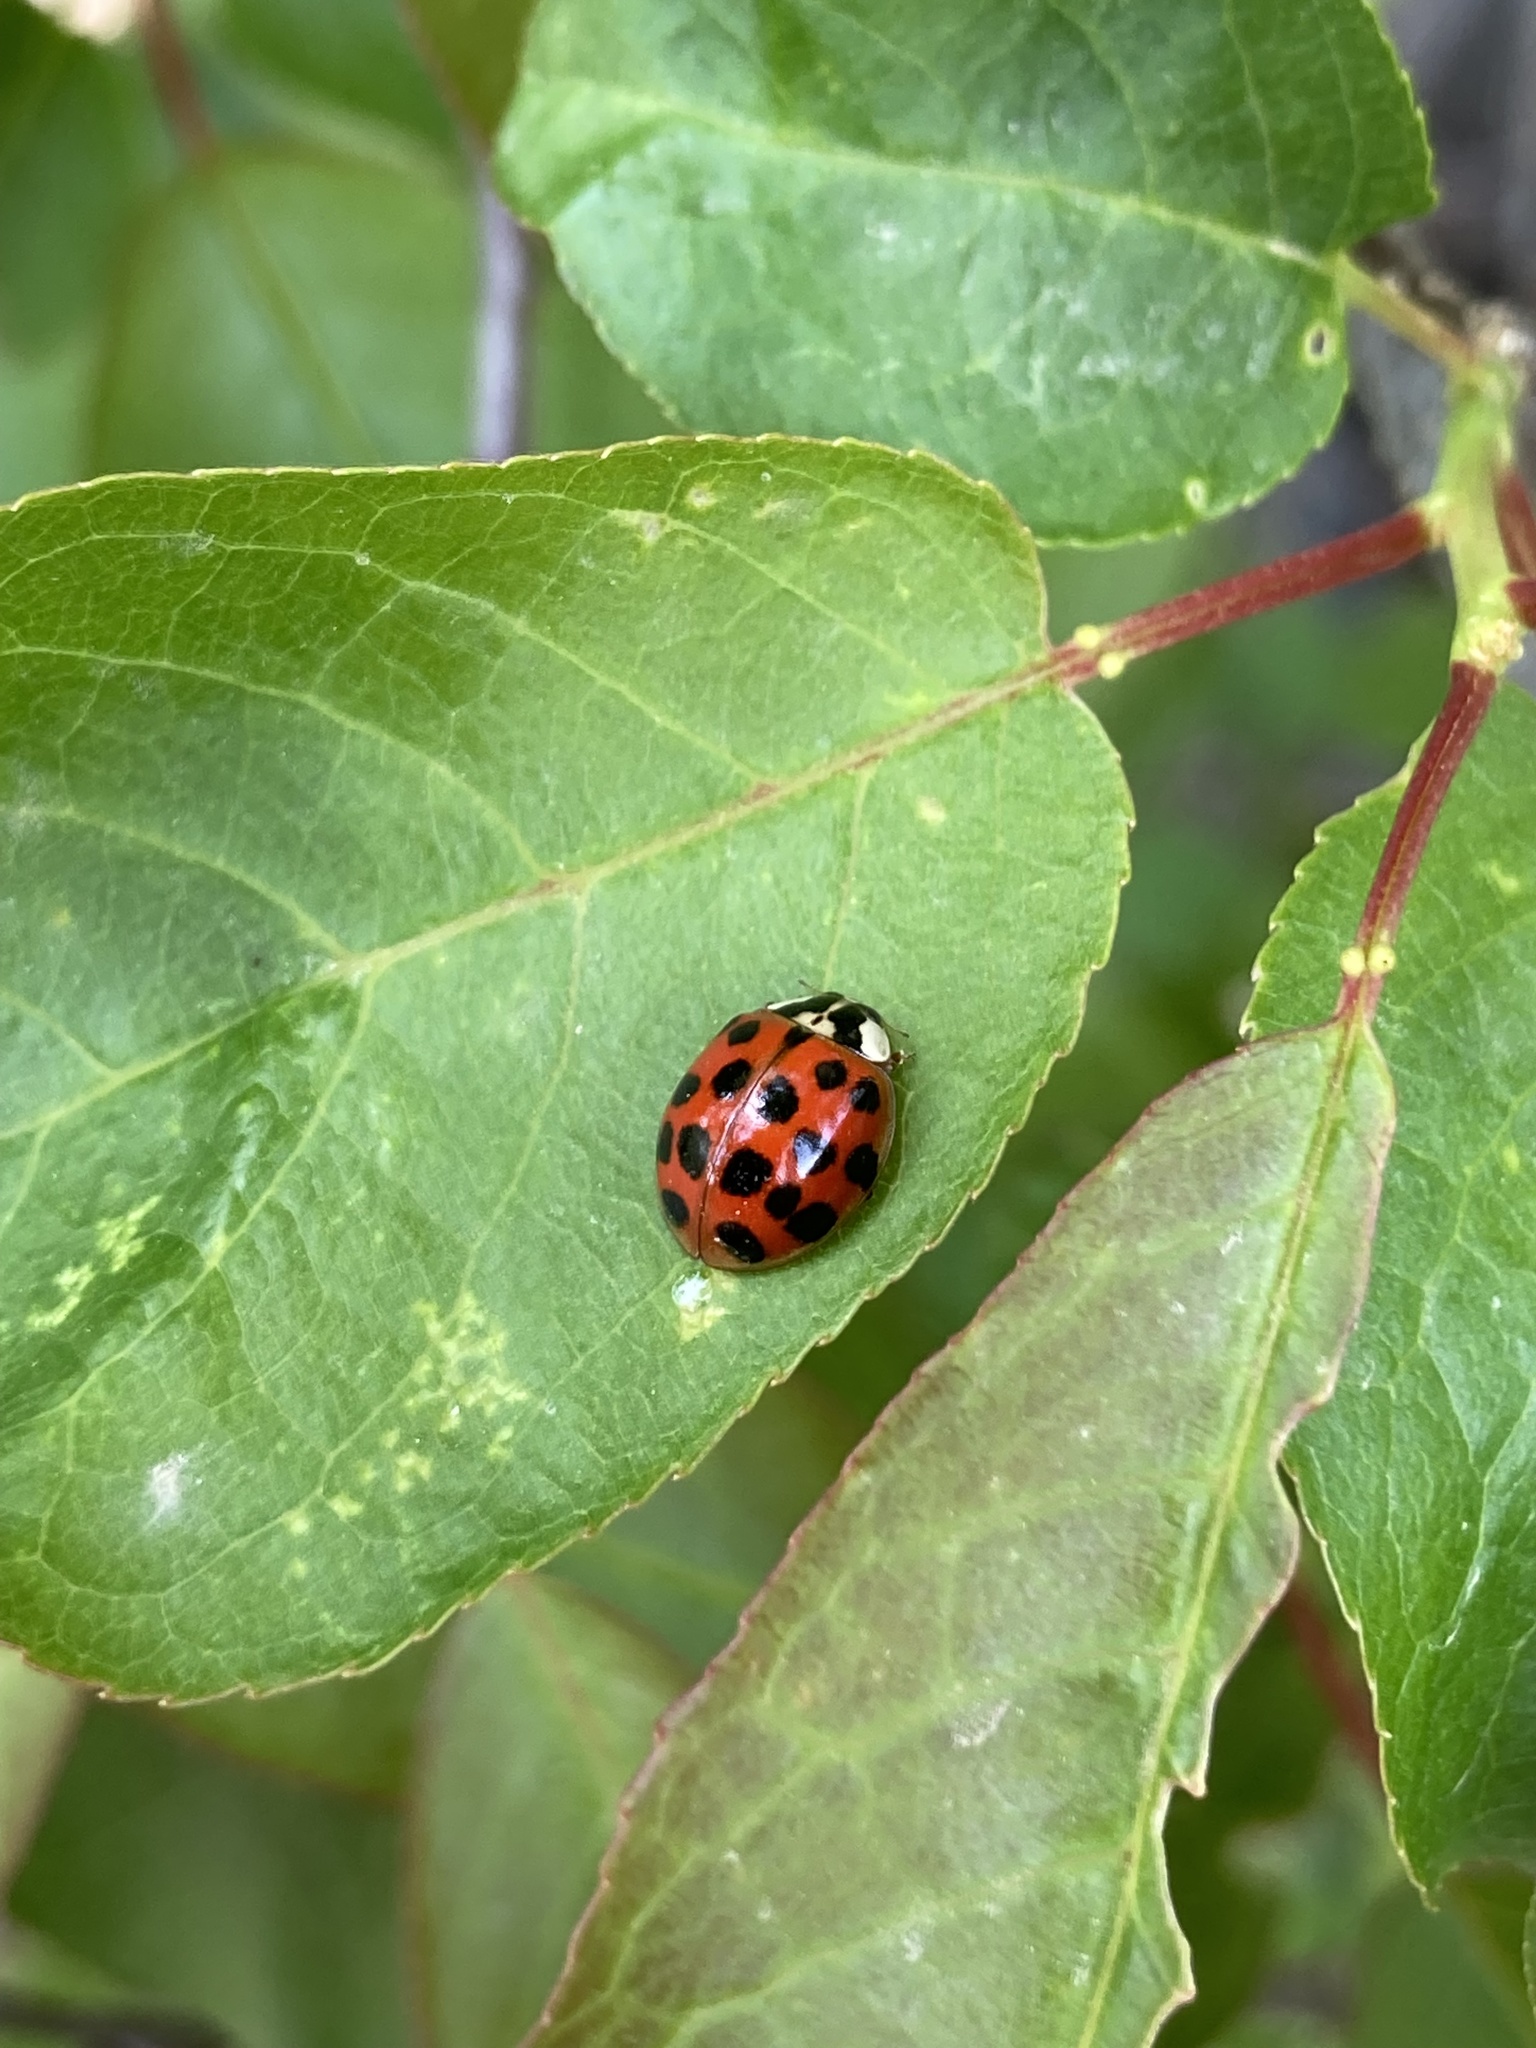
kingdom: Animalia
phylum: Arthropoda
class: Insecta
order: Coleoptera
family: Coccinellidae
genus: Harmonia
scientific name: Harmonia axyridis
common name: Harlequin ladybird
